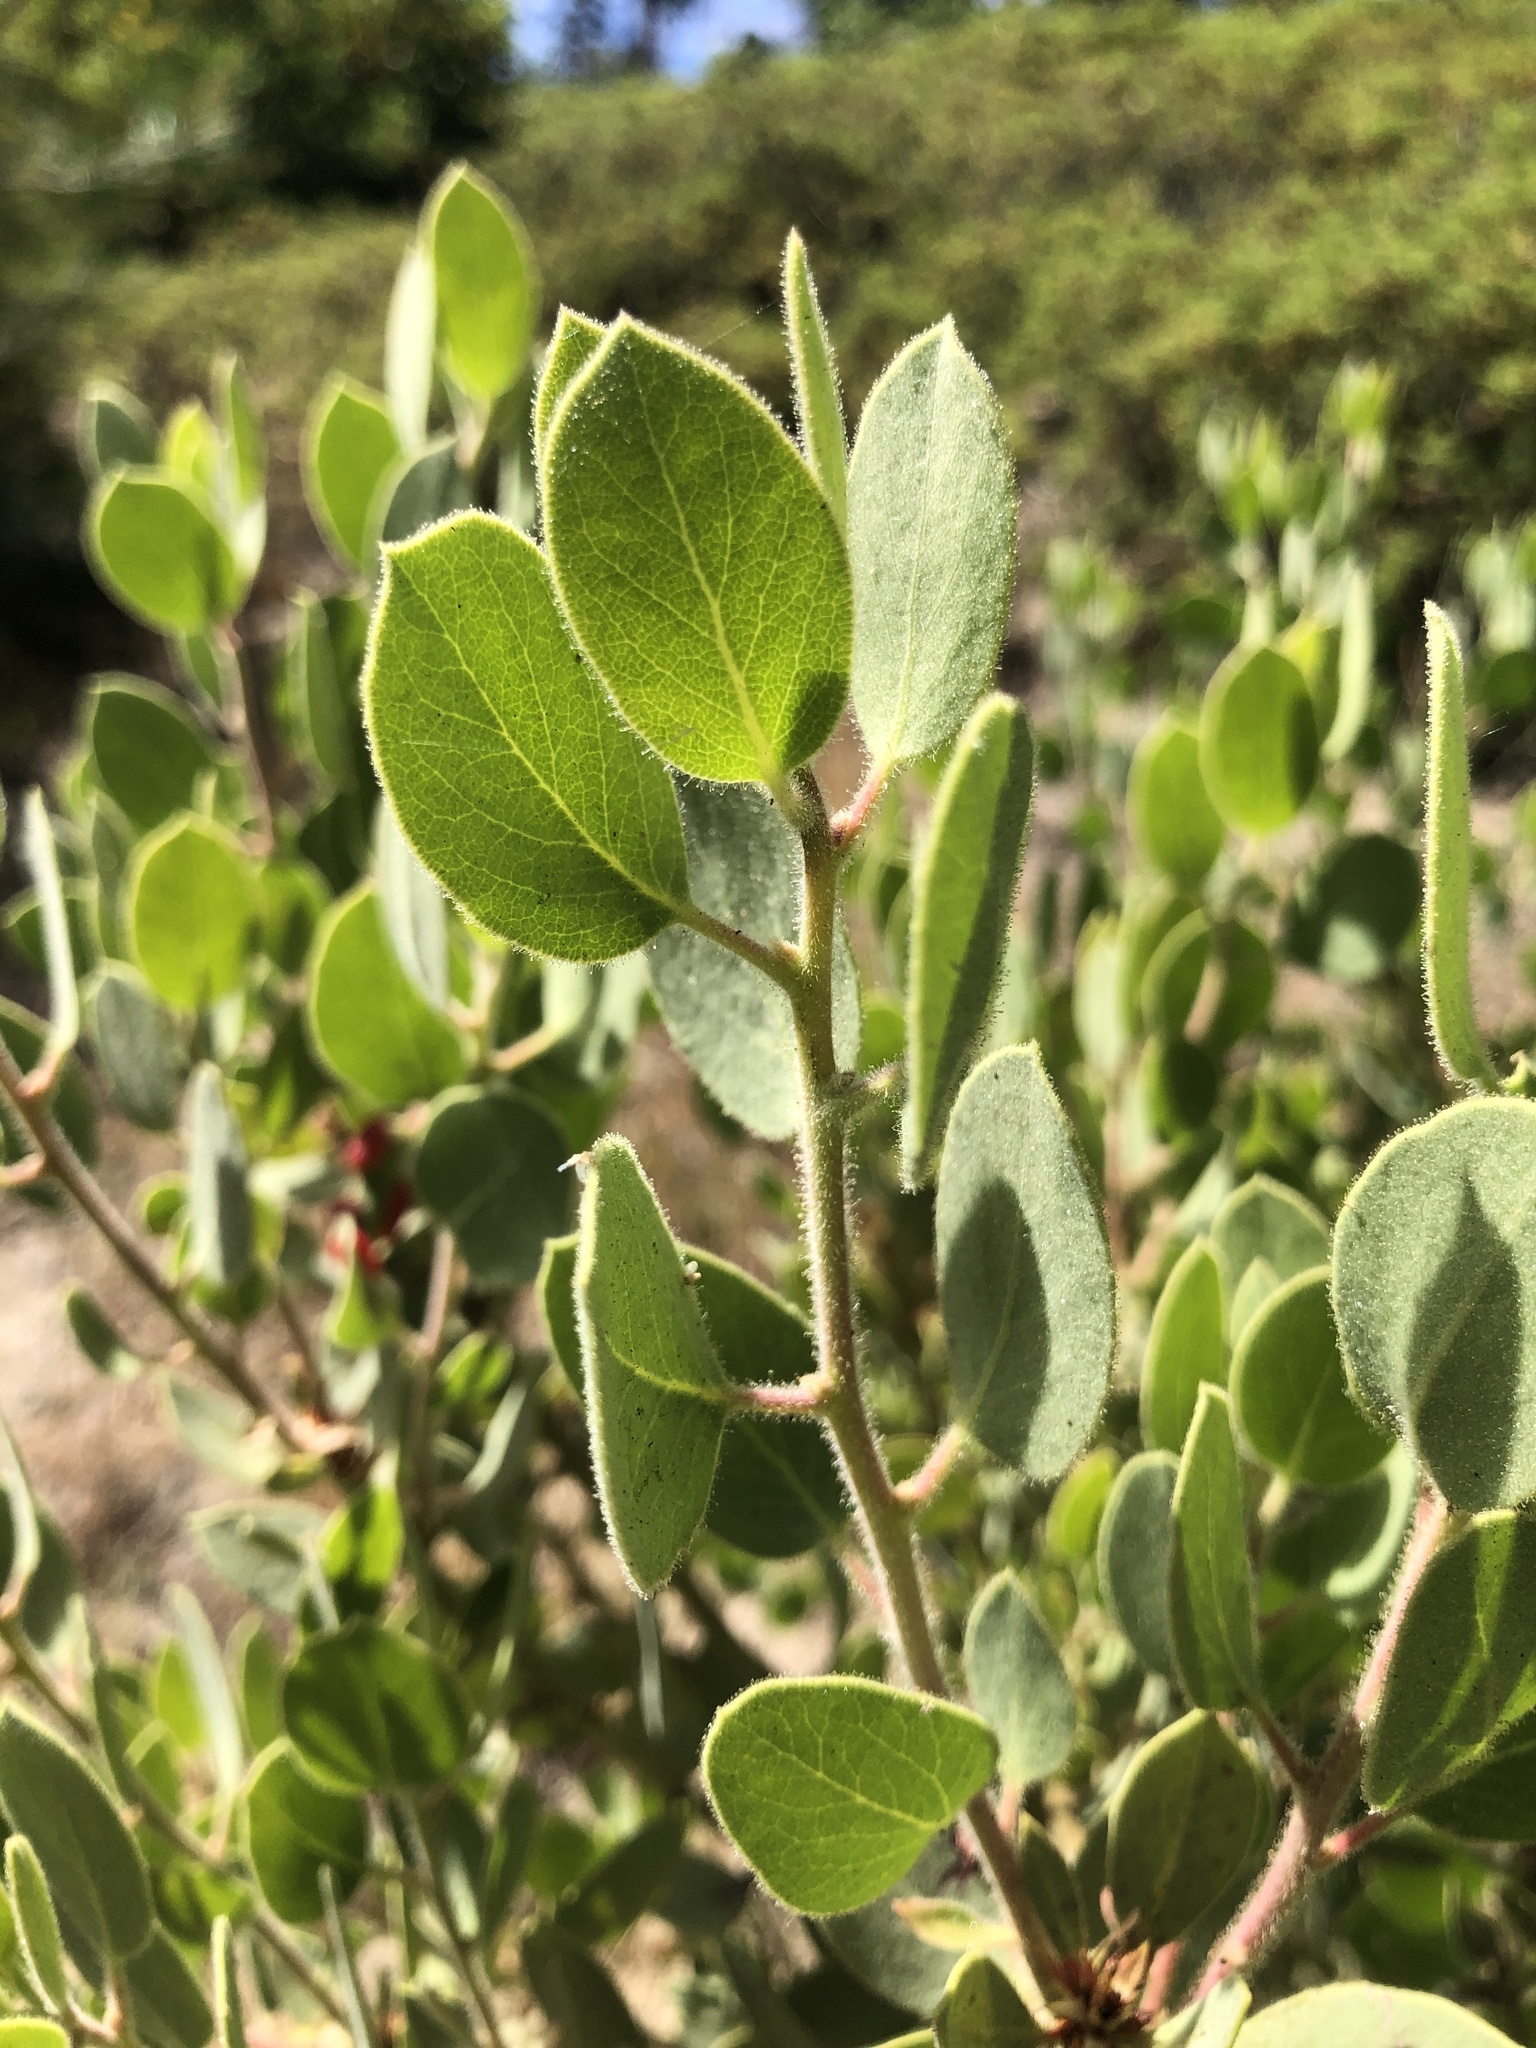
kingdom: Plantae
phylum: Tracheophyta
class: Magnoliopsida
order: Ericales
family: Ericaceae
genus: Arctostaphylos
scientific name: Arctostaphylos viscida
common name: White-leaf manzanita
